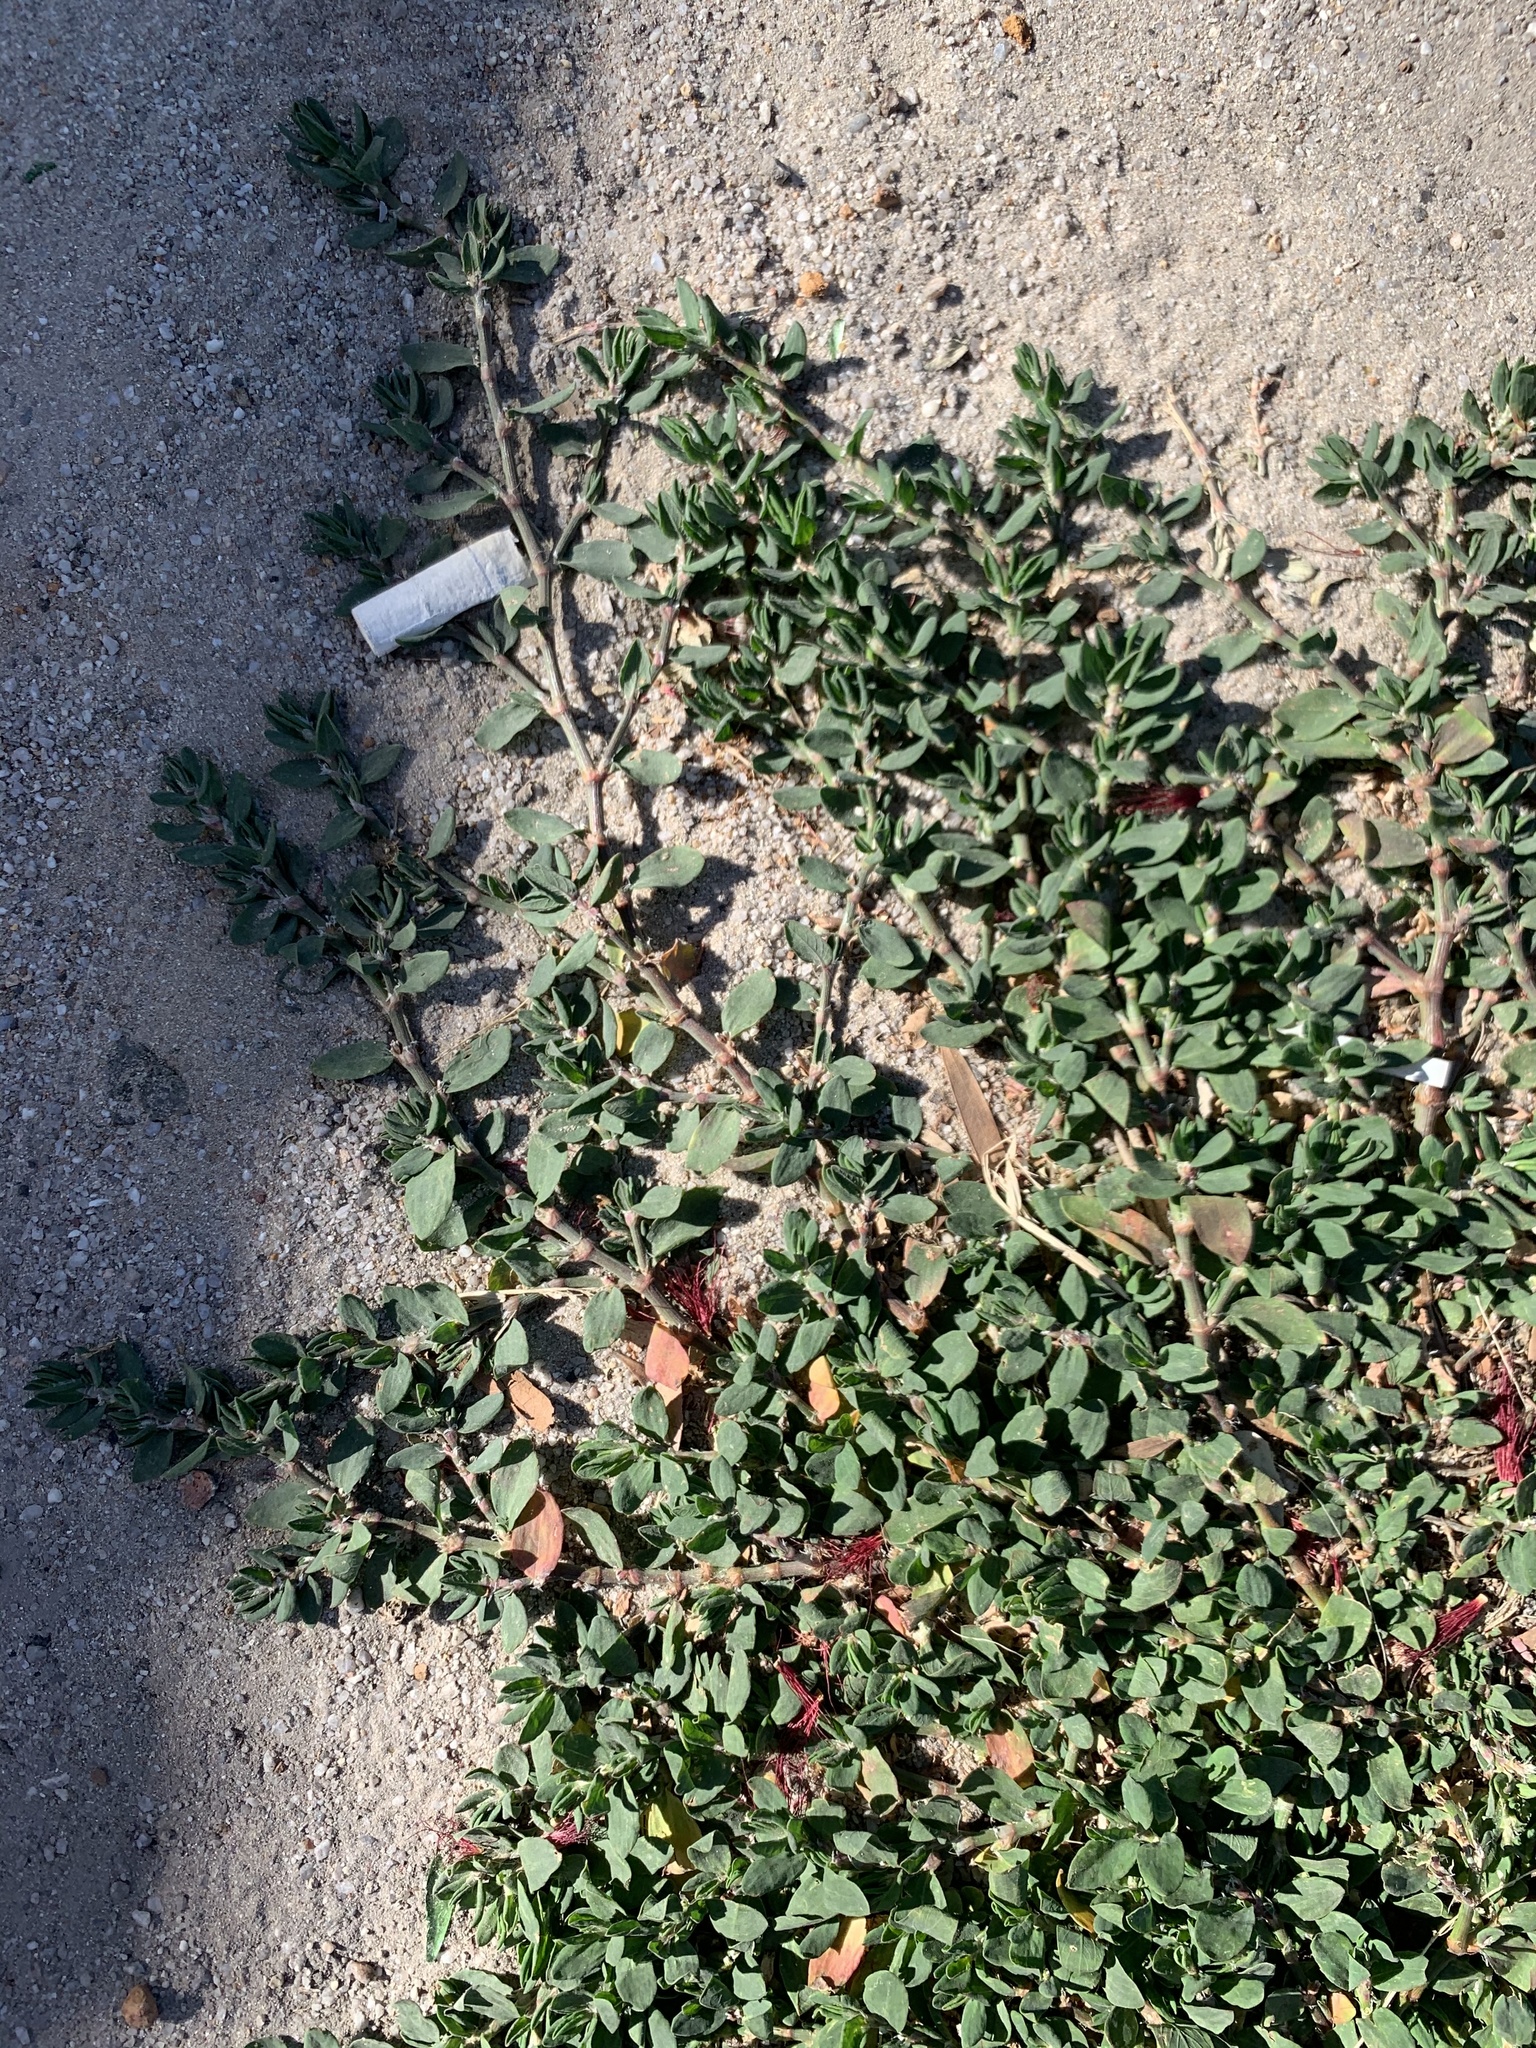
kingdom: Plantae
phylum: Tracheophyta
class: Magnoliopsida
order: Caryophyllales
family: Polygonaceae
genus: Polygonum
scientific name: Polygonum aviculare
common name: Prostrate knotweed
